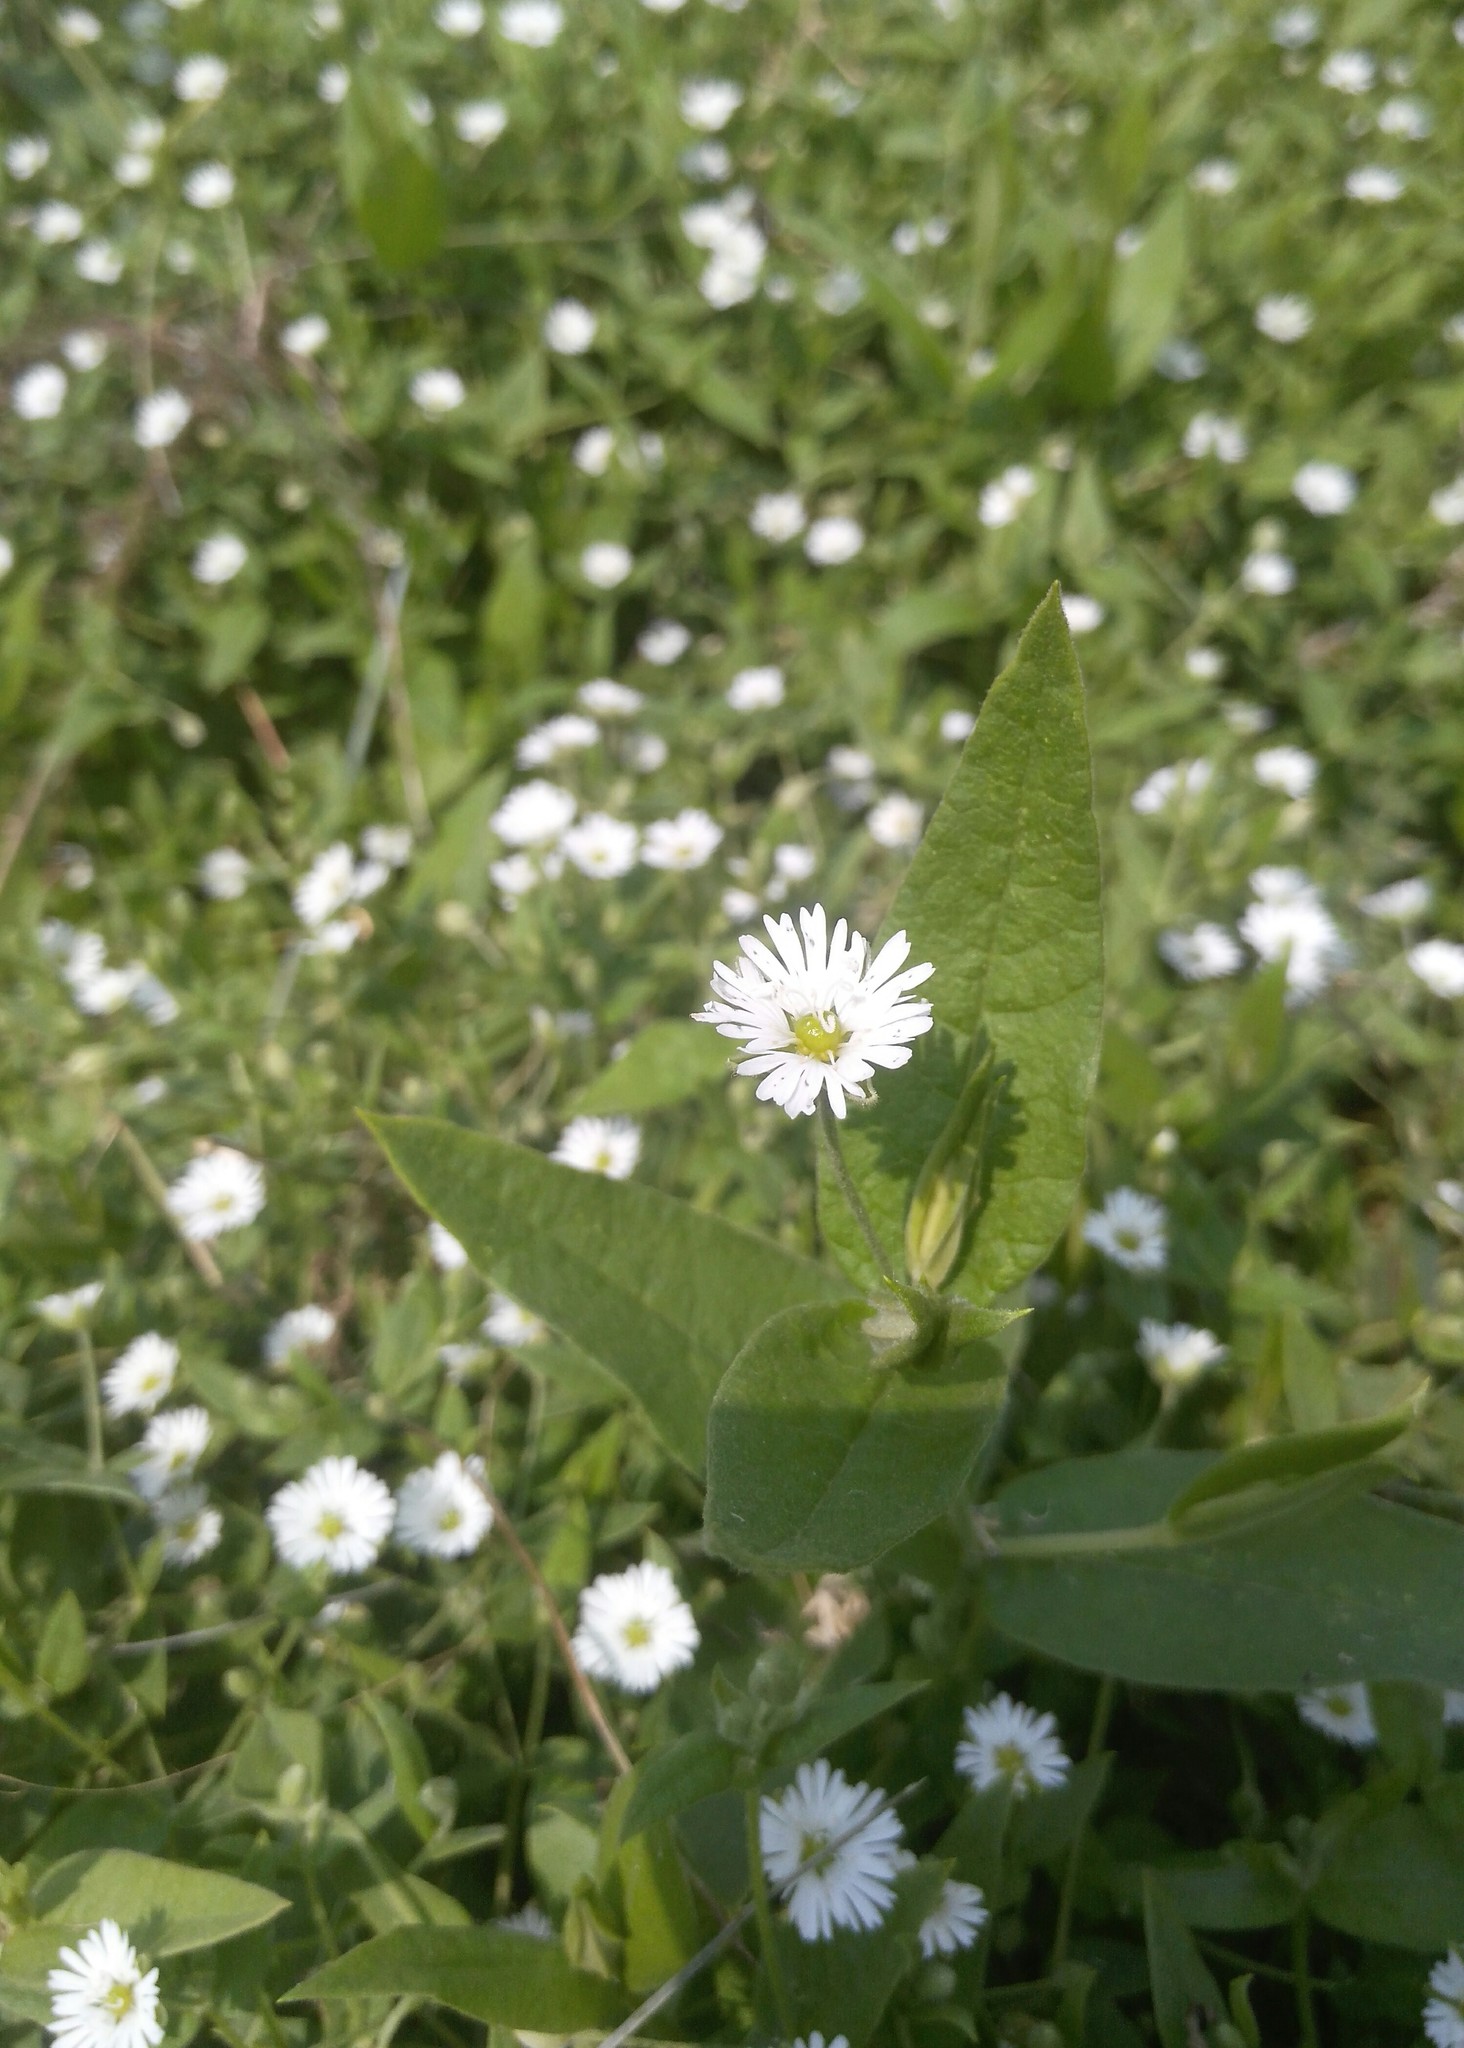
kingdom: Plantae
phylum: Tracheophyta
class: Magnoliopsida
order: Caryophyllales
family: Caryophyllaceae
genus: Stellaria
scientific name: Stellaria radians
